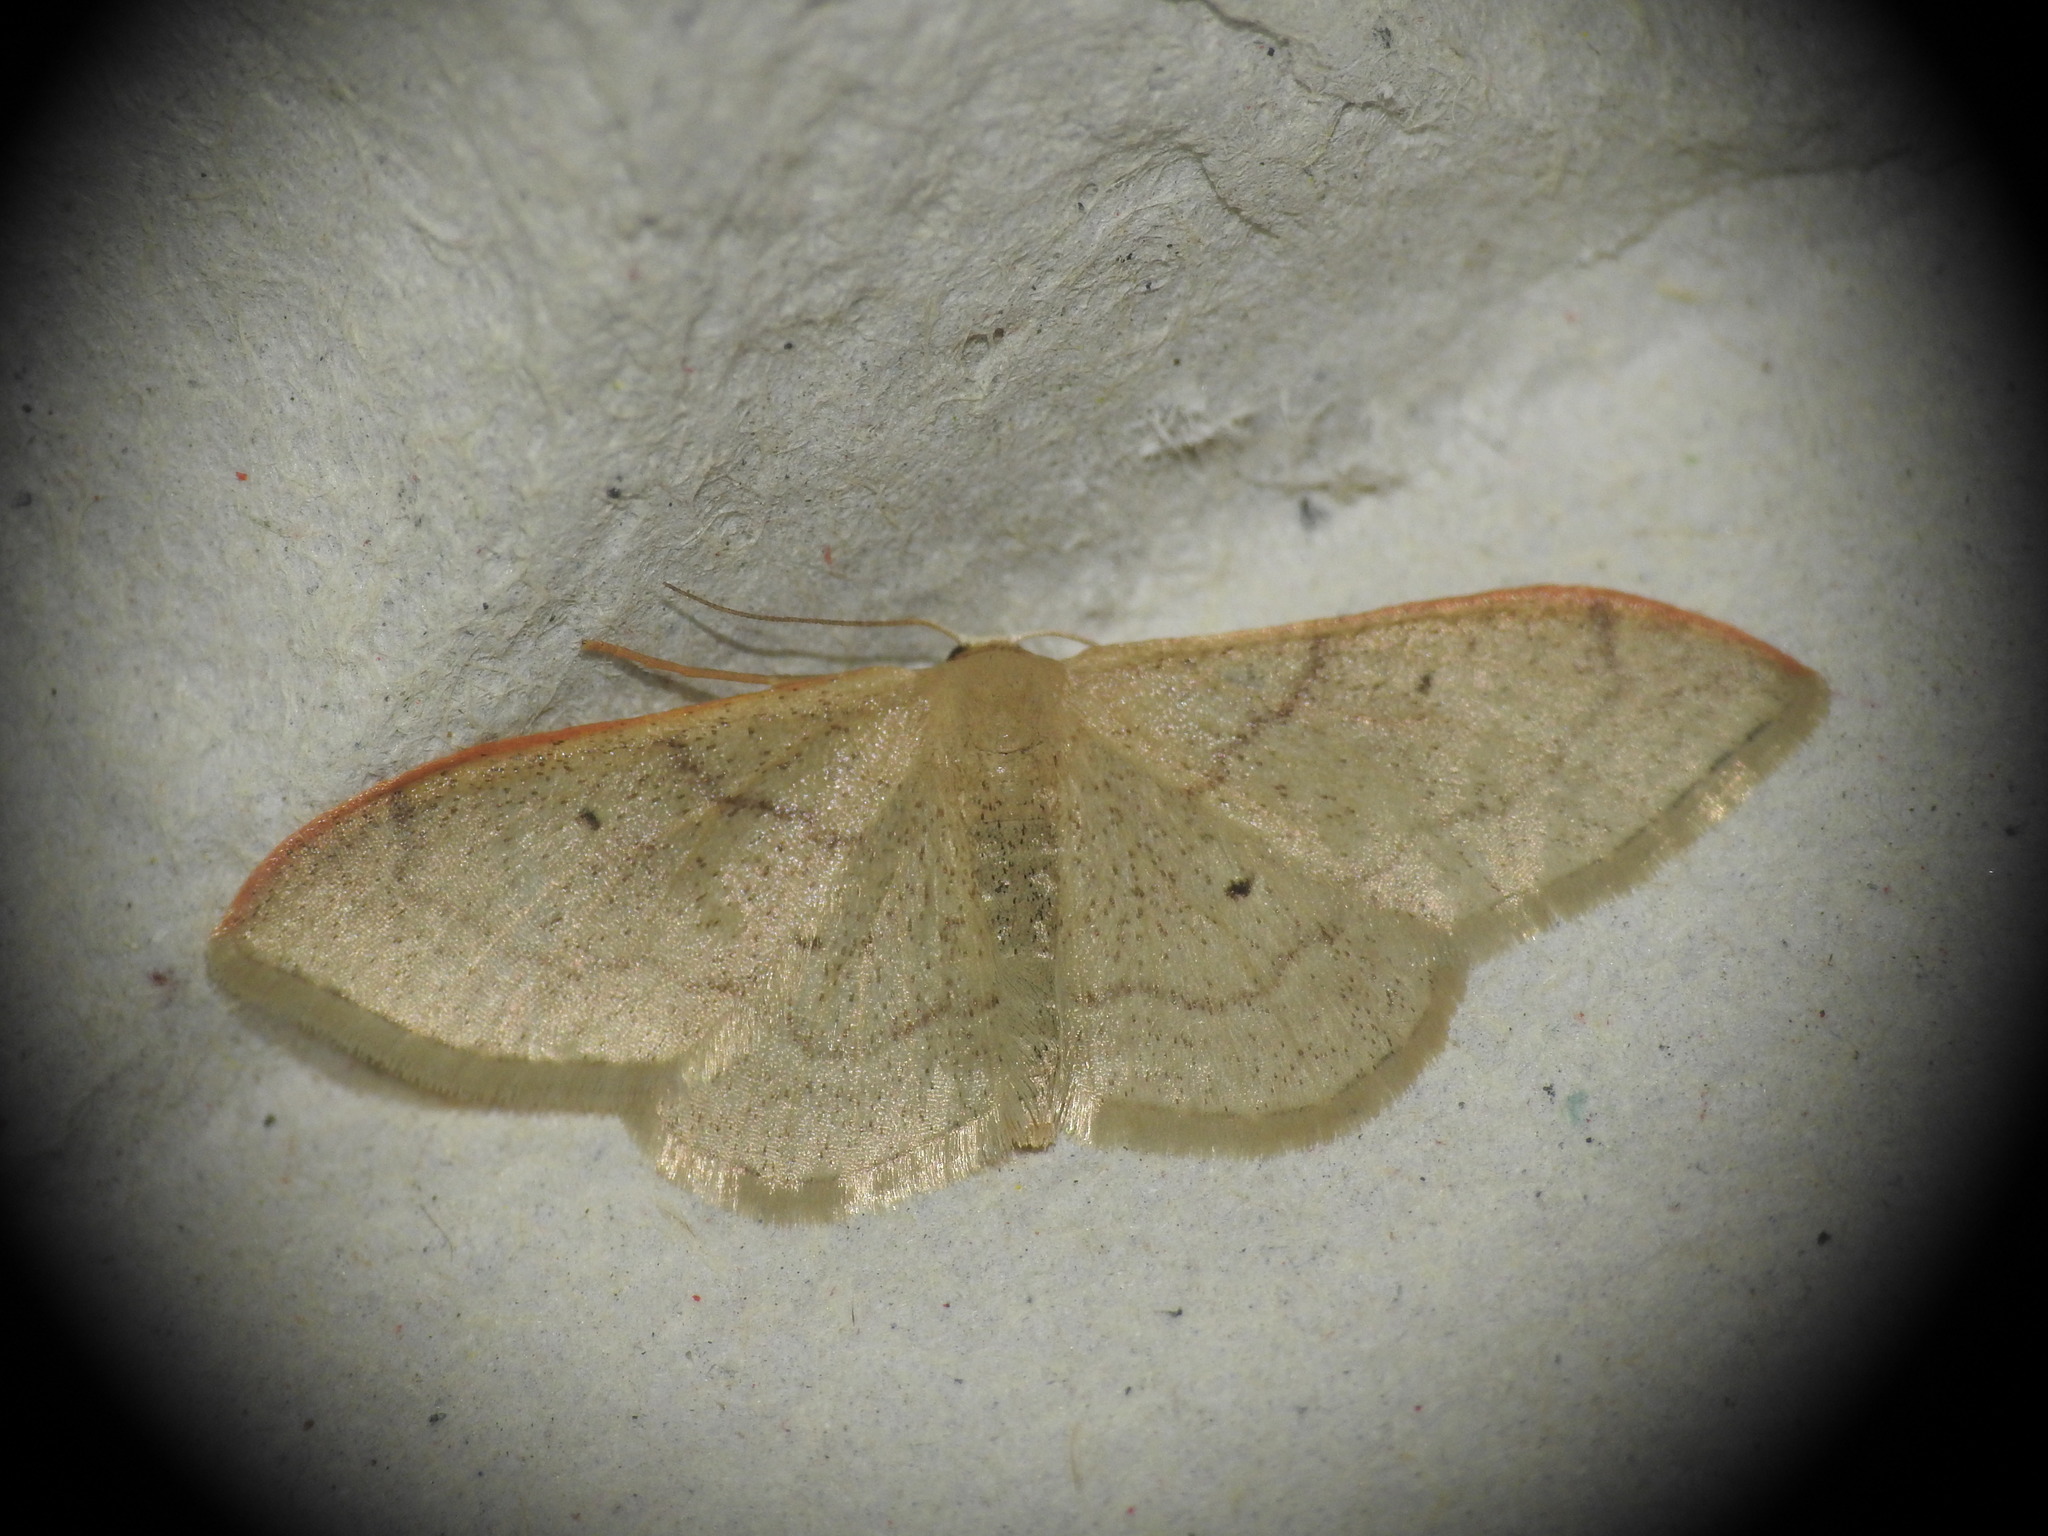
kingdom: Animalia
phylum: Arthropoda
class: Insecta
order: Lepidoptera
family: Geometridae
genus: Idaea
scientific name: Idaea degeneraria
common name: Portland ribbon wave
